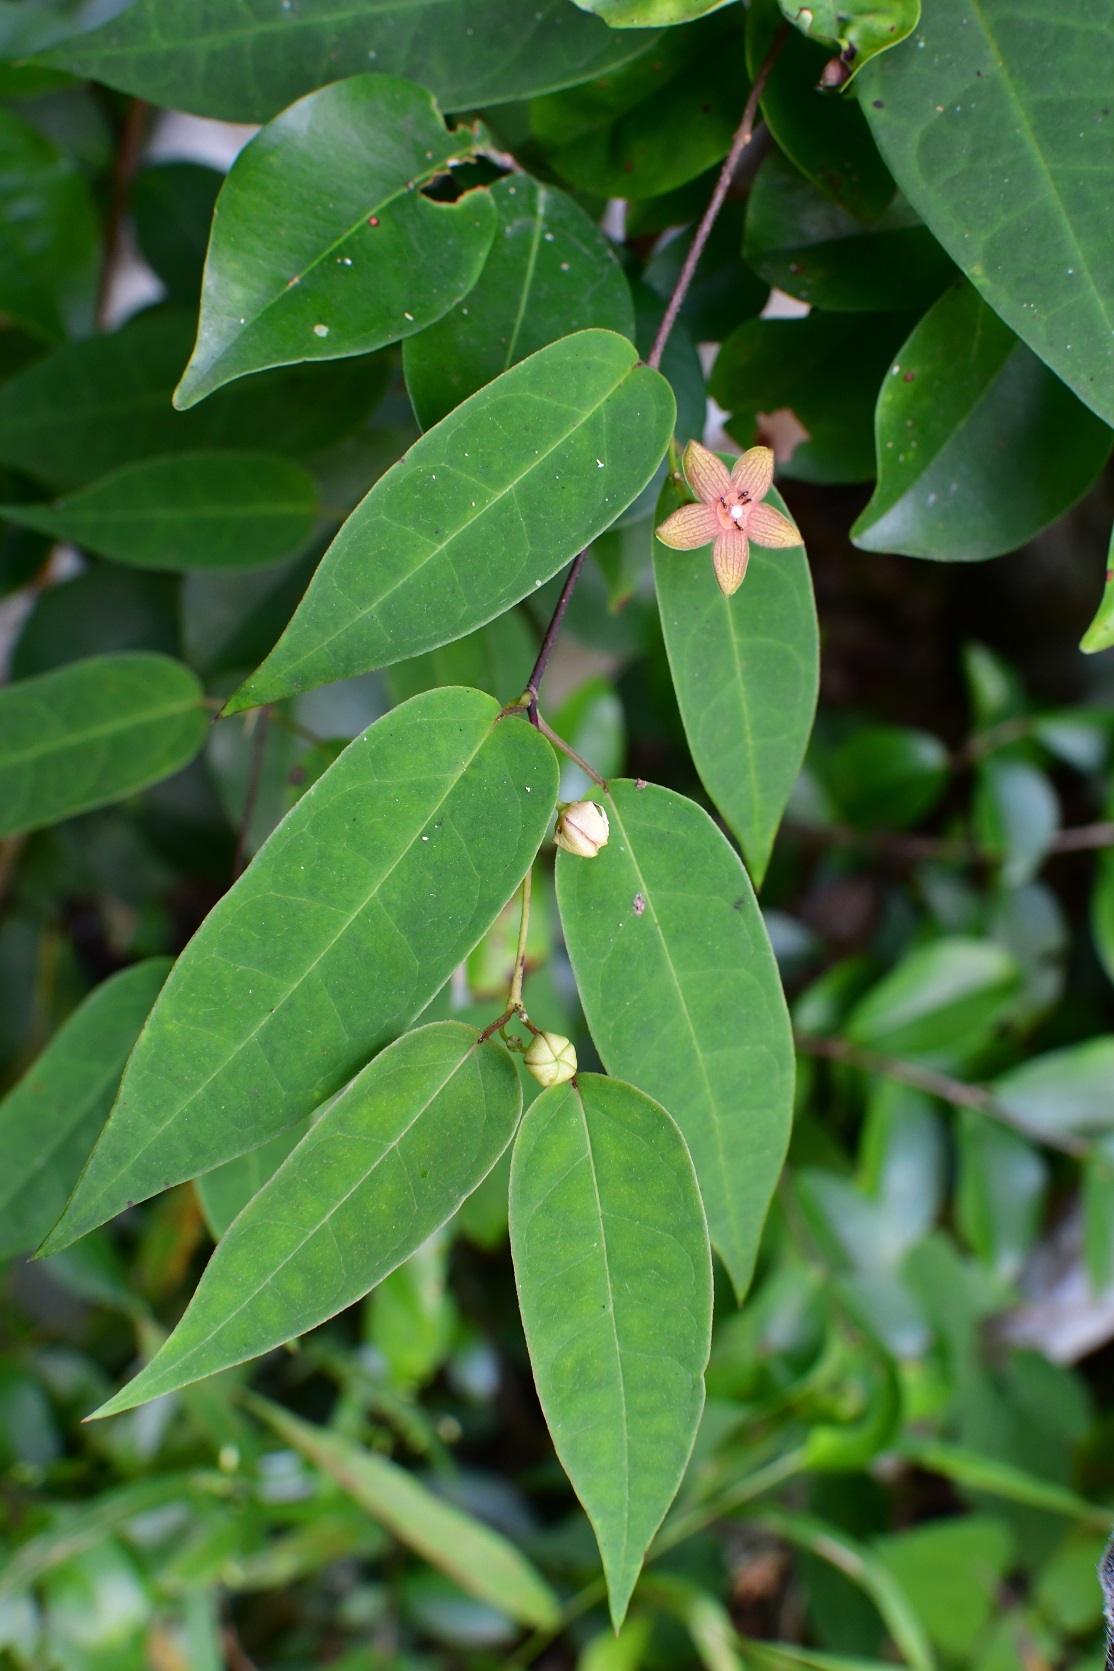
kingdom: Plantae
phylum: Tracheophyta
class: Magnoliopsida
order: Gentianales
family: Apocynaceae
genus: Ruehssia
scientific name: Ruehssia sumiderensis
